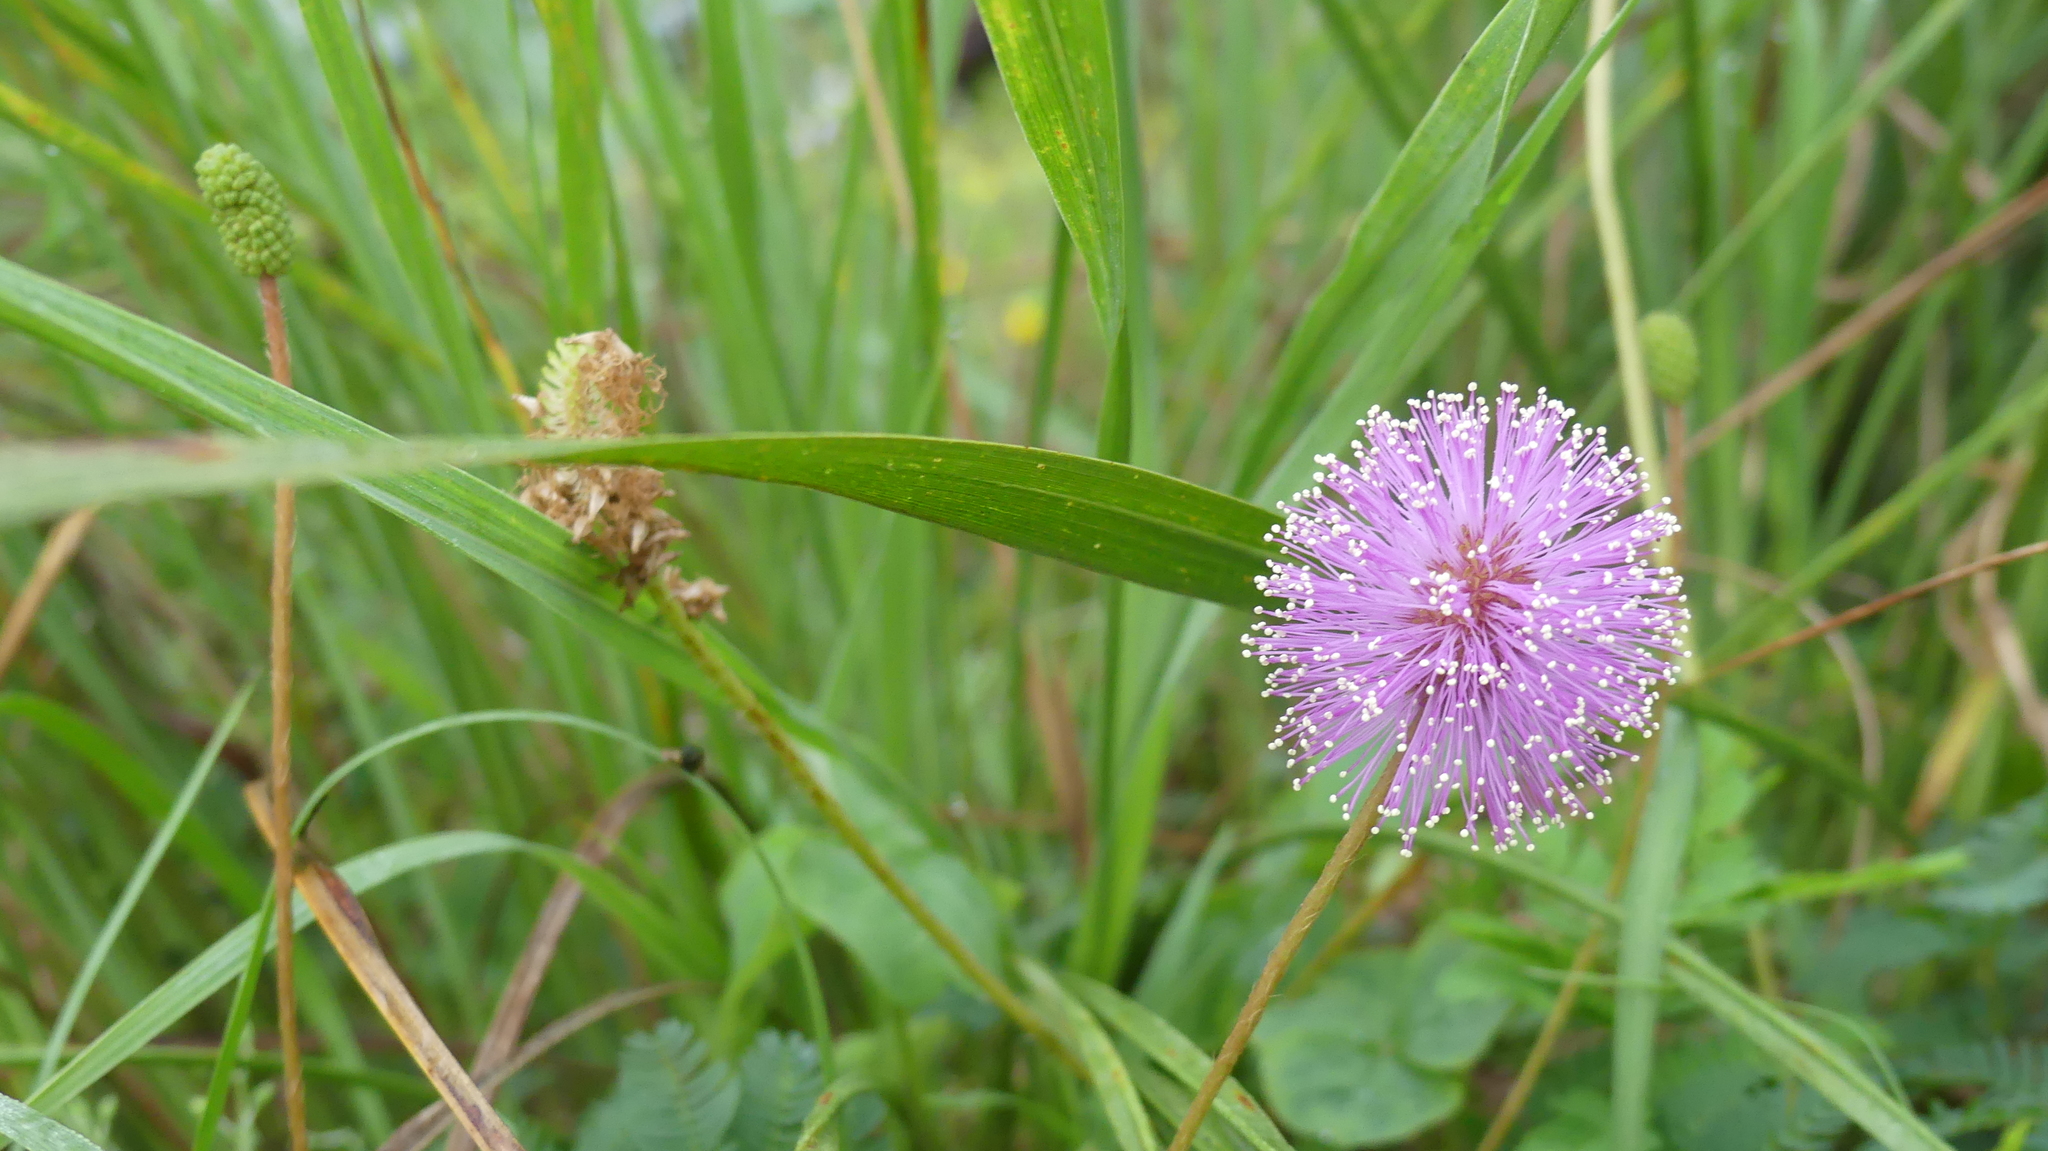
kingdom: Plantae
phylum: Tracheophyta
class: Magnoliopsida
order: Fabales
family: Fabaceae
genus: Mimosa
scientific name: Mimosa strigillosa
